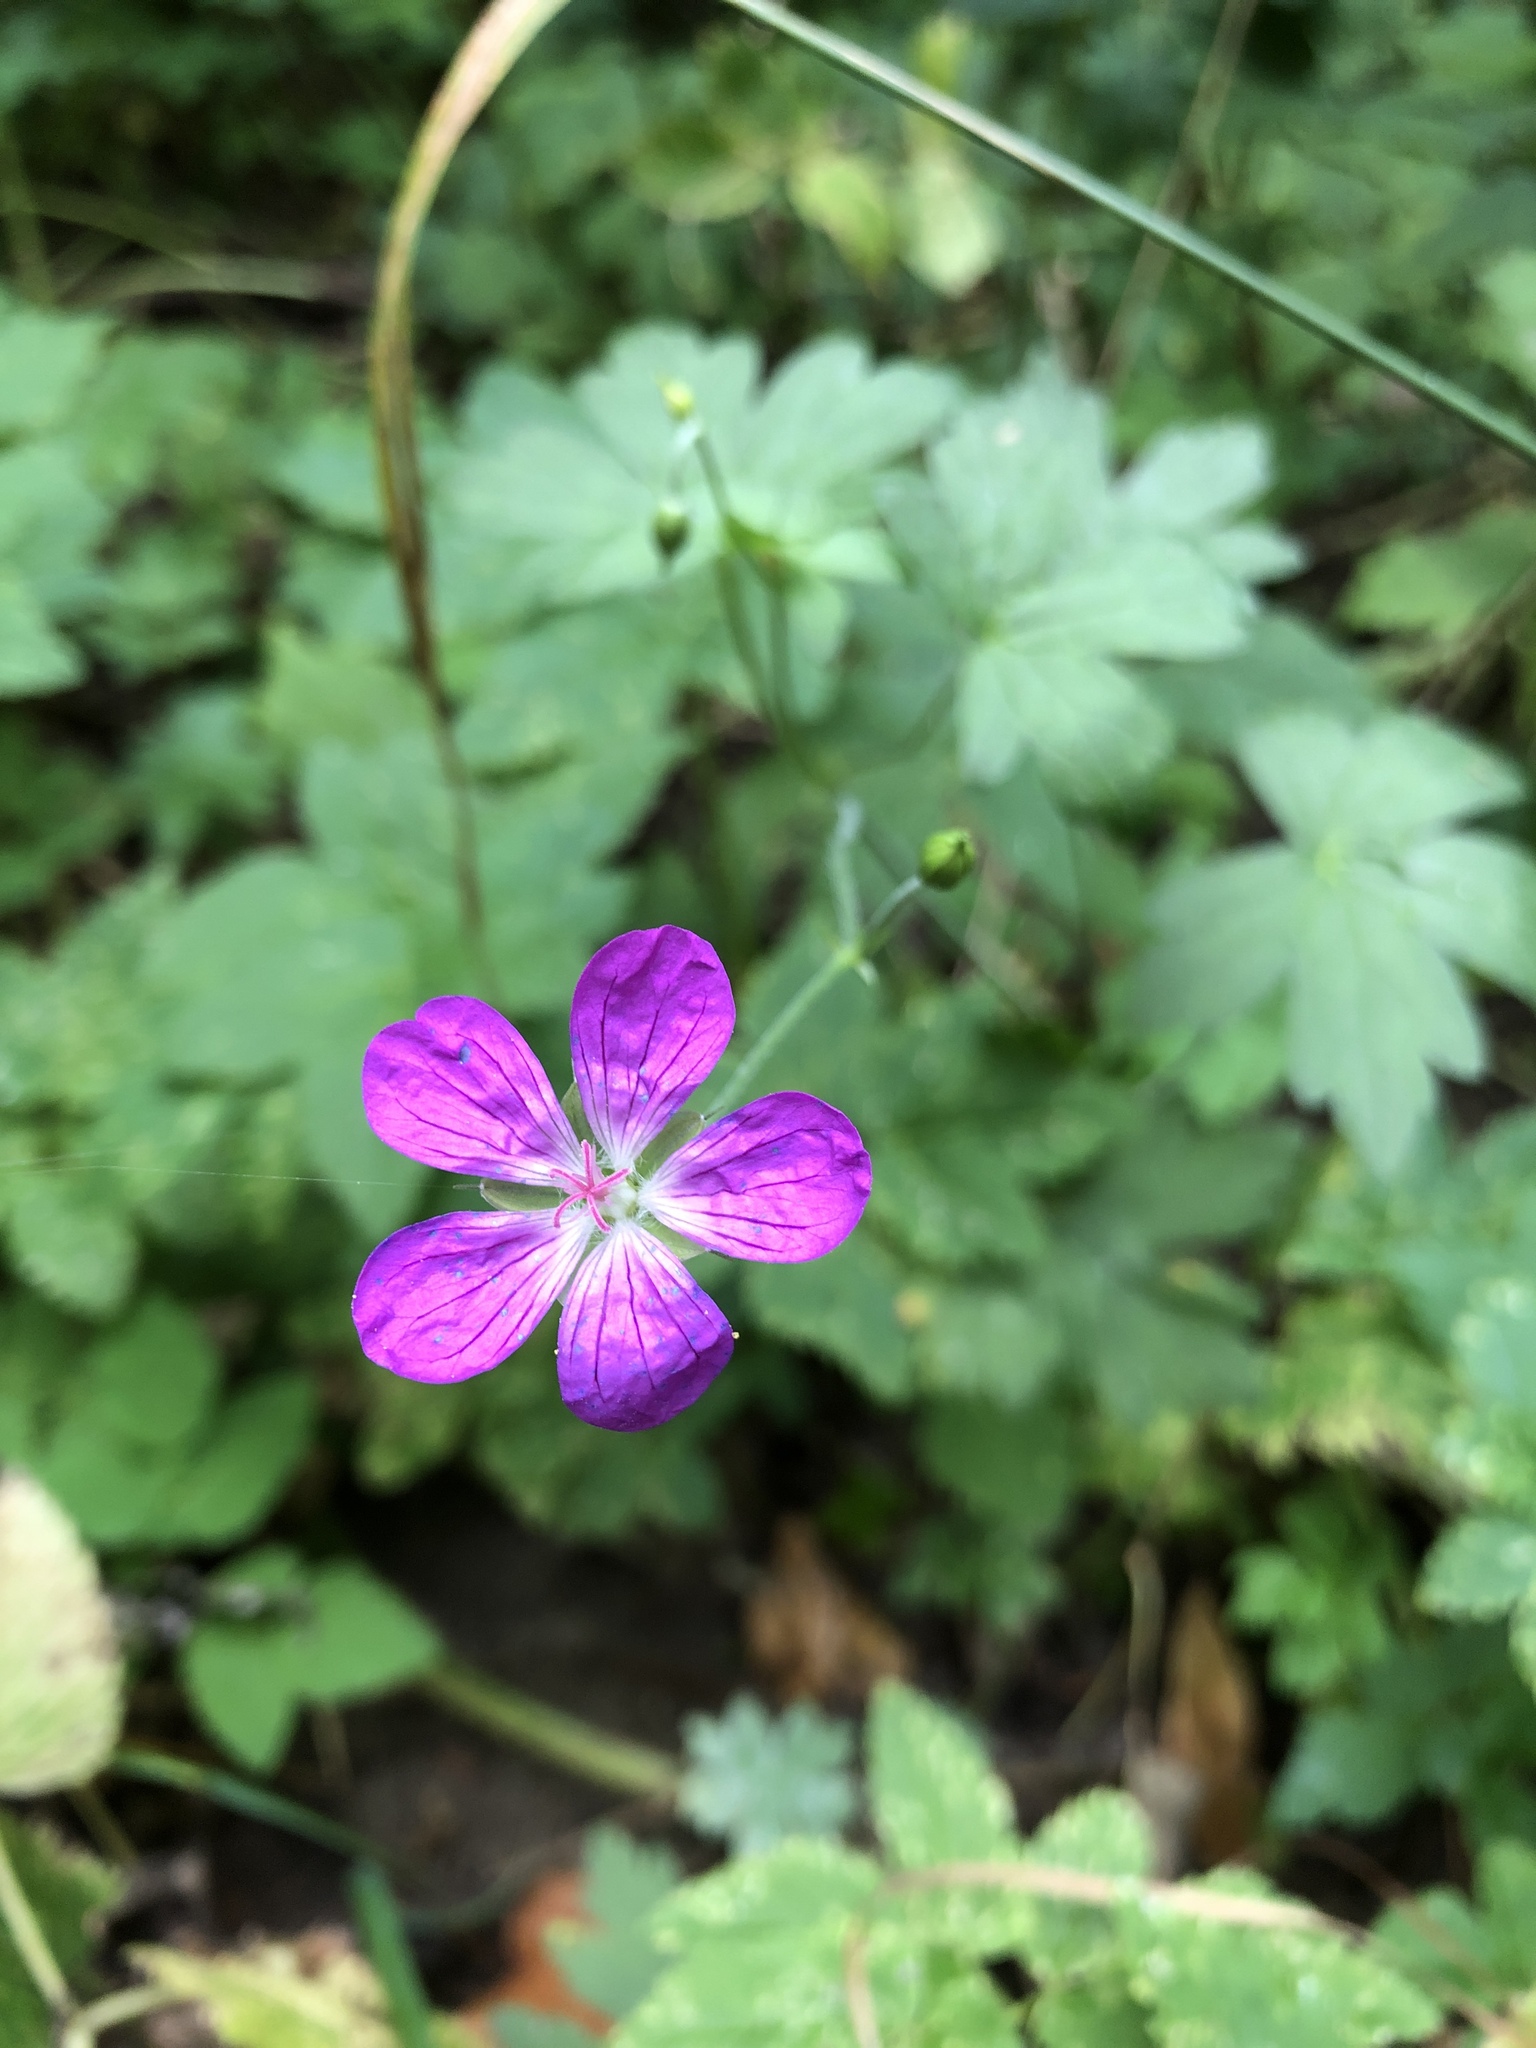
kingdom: Plantae
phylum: Tracheophyta
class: Magnoliopsida
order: Geraniales
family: Geraniaceae
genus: Geranium
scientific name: Geranium palustre
